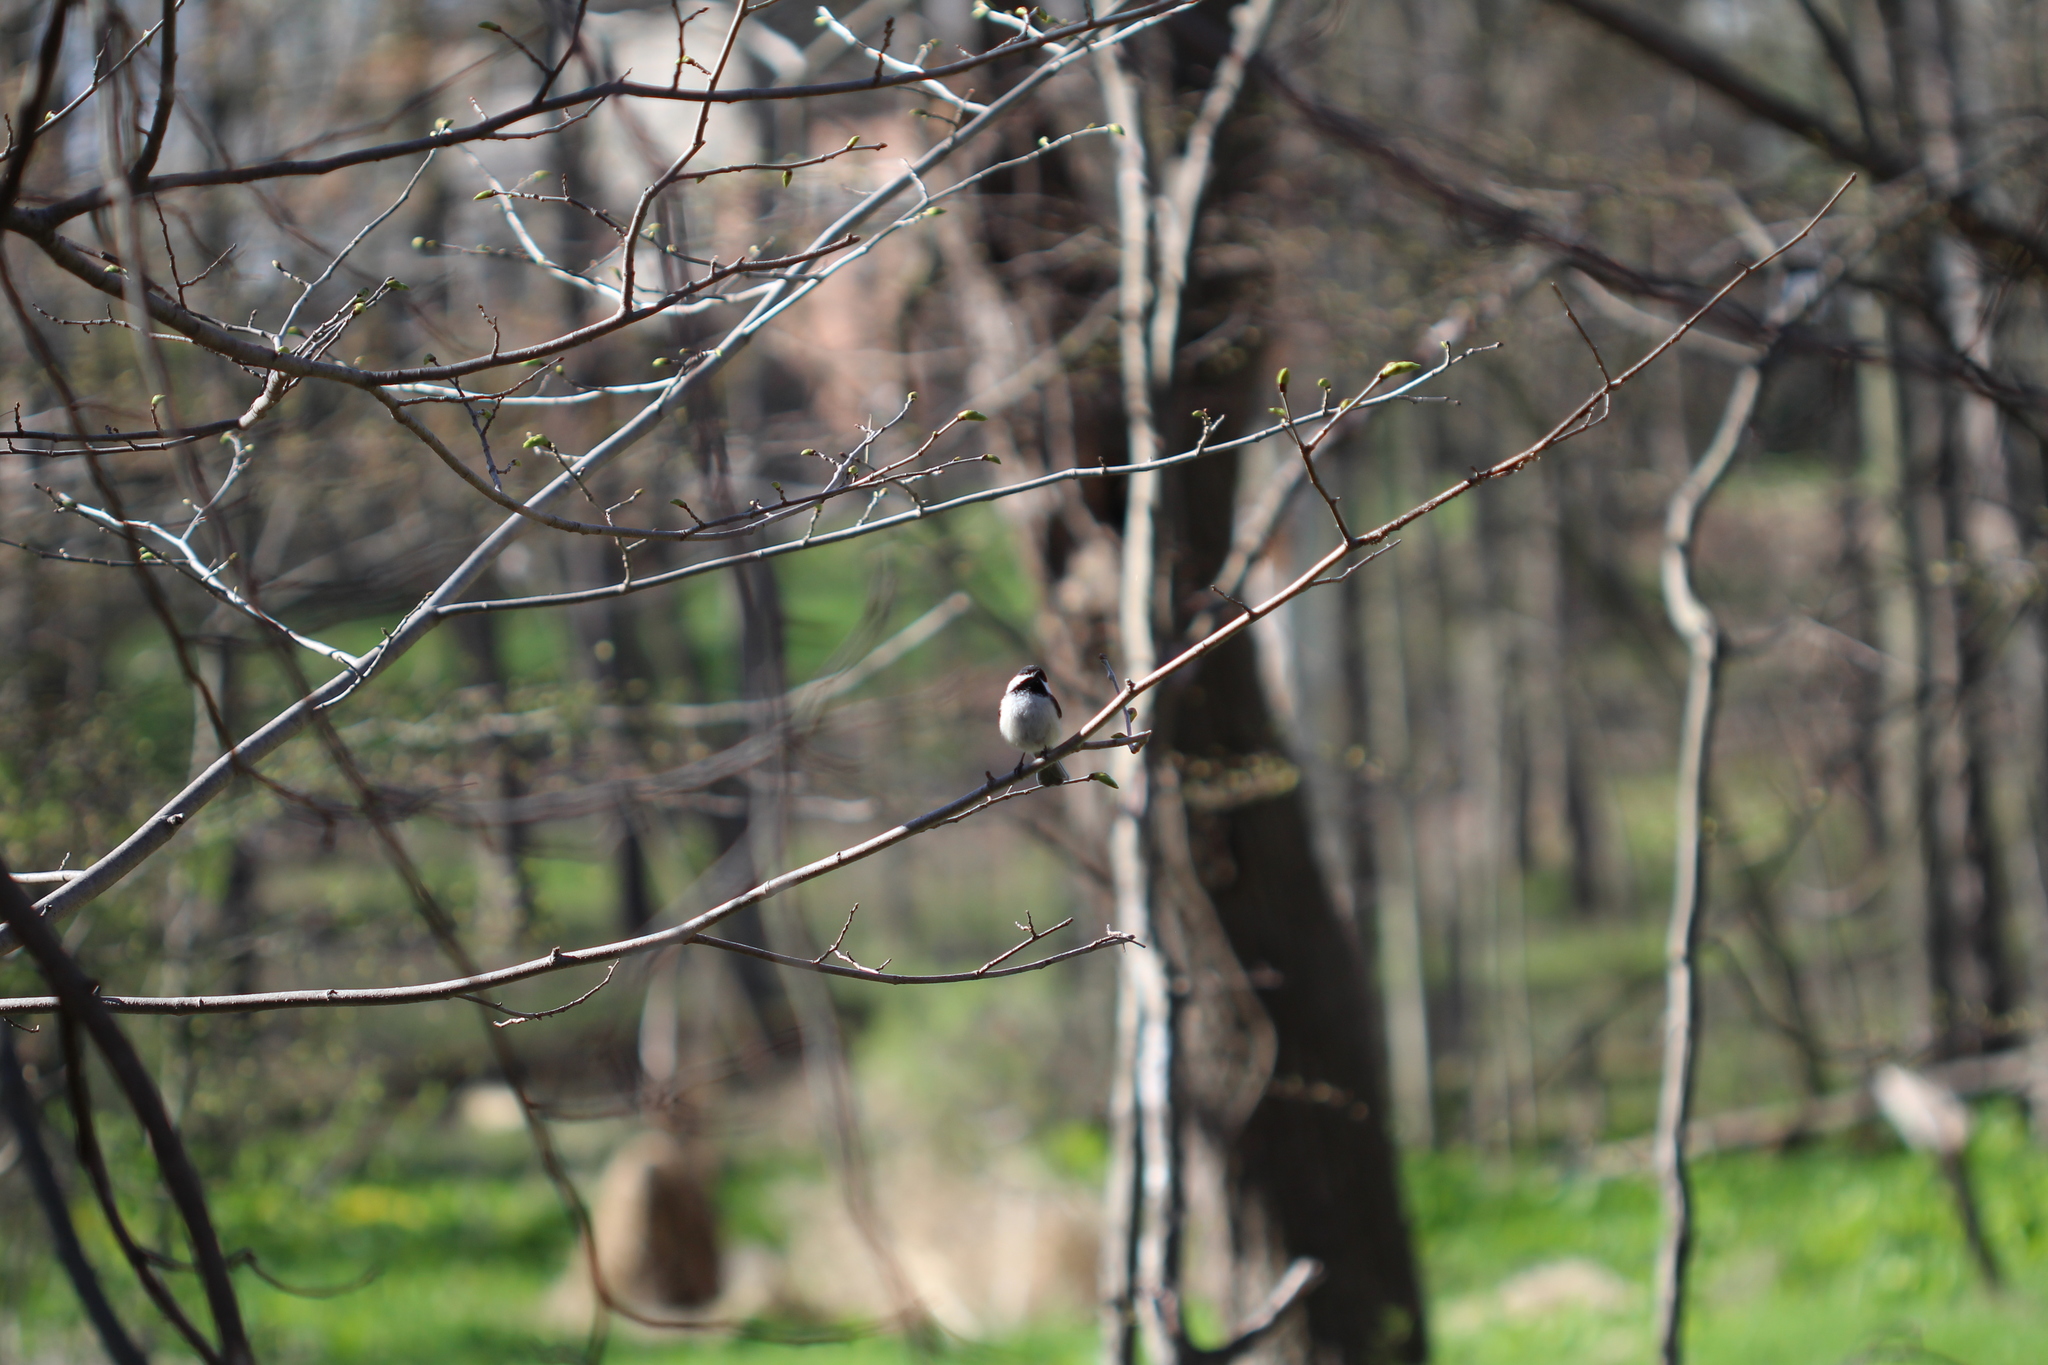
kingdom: Animalia
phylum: Chordata
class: Aves
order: Passeriformes
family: Paridae
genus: Poecile
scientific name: Poecile atricapillus
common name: Black-capped chickadee
